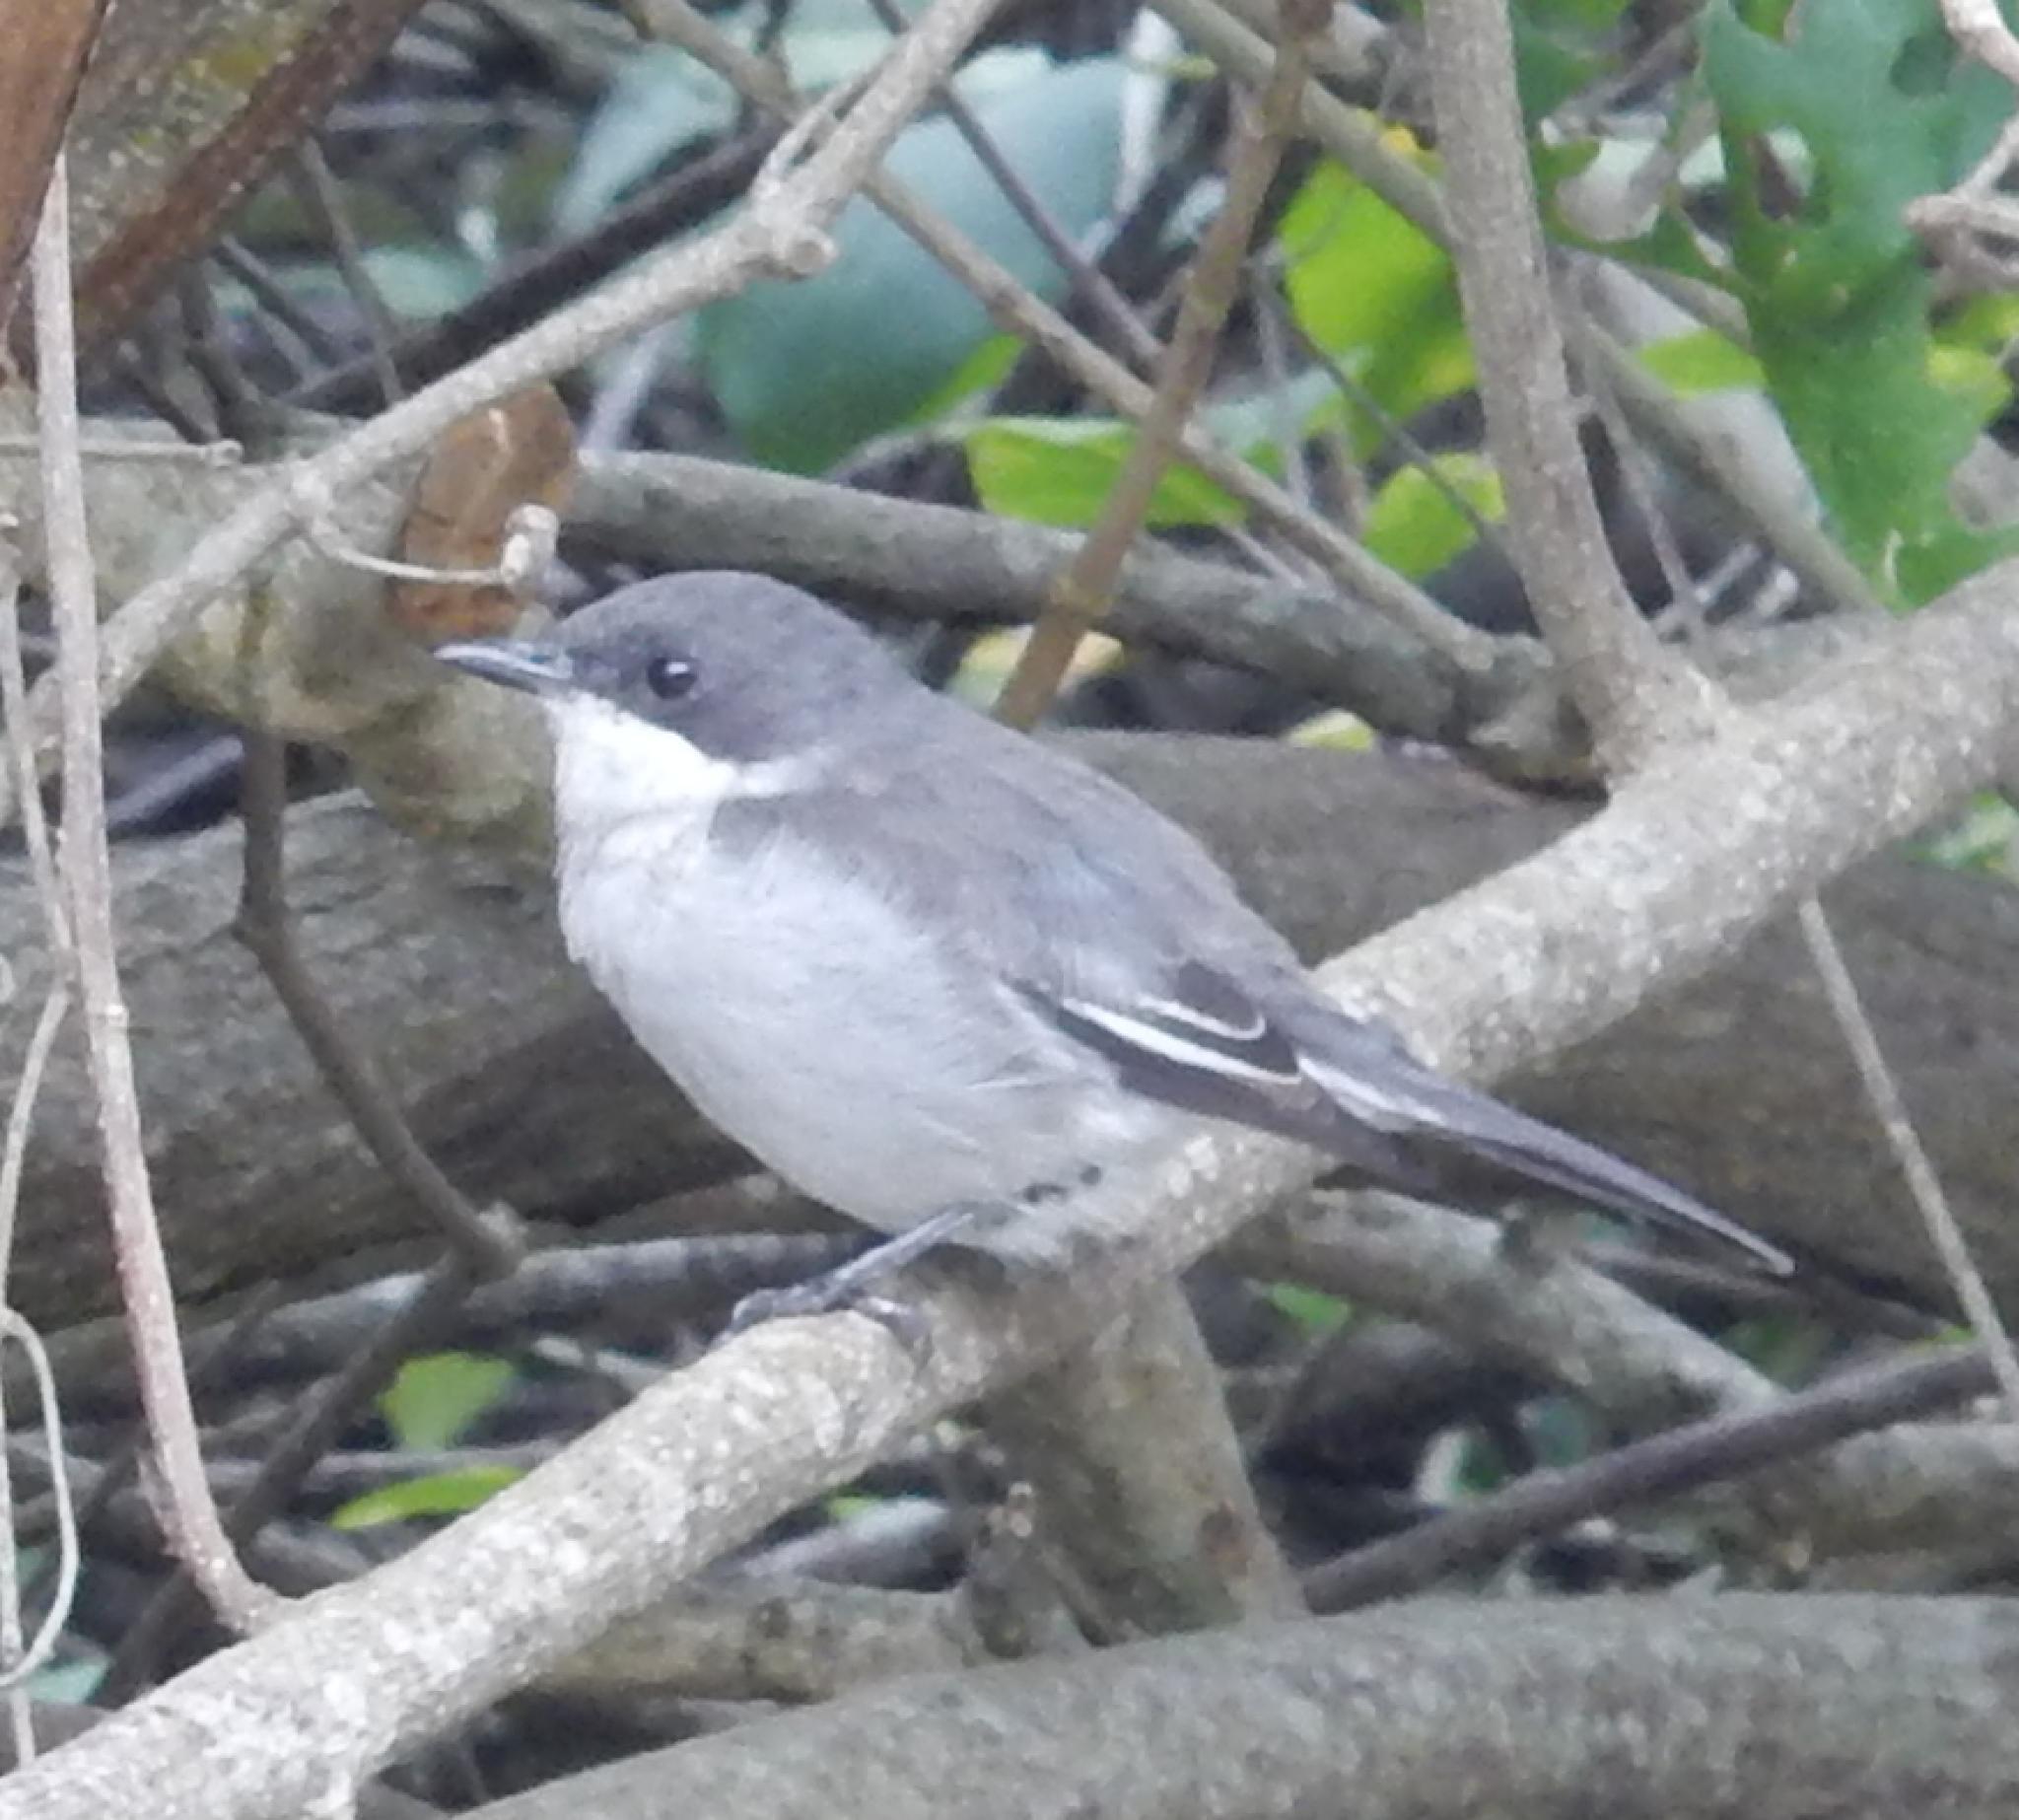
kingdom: Animalia
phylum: Chordata
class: Aves
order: Passeriformes
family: Muscicapidae
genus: Sigelus
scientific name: Sigelus silens
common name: Fiscal flycatcher
